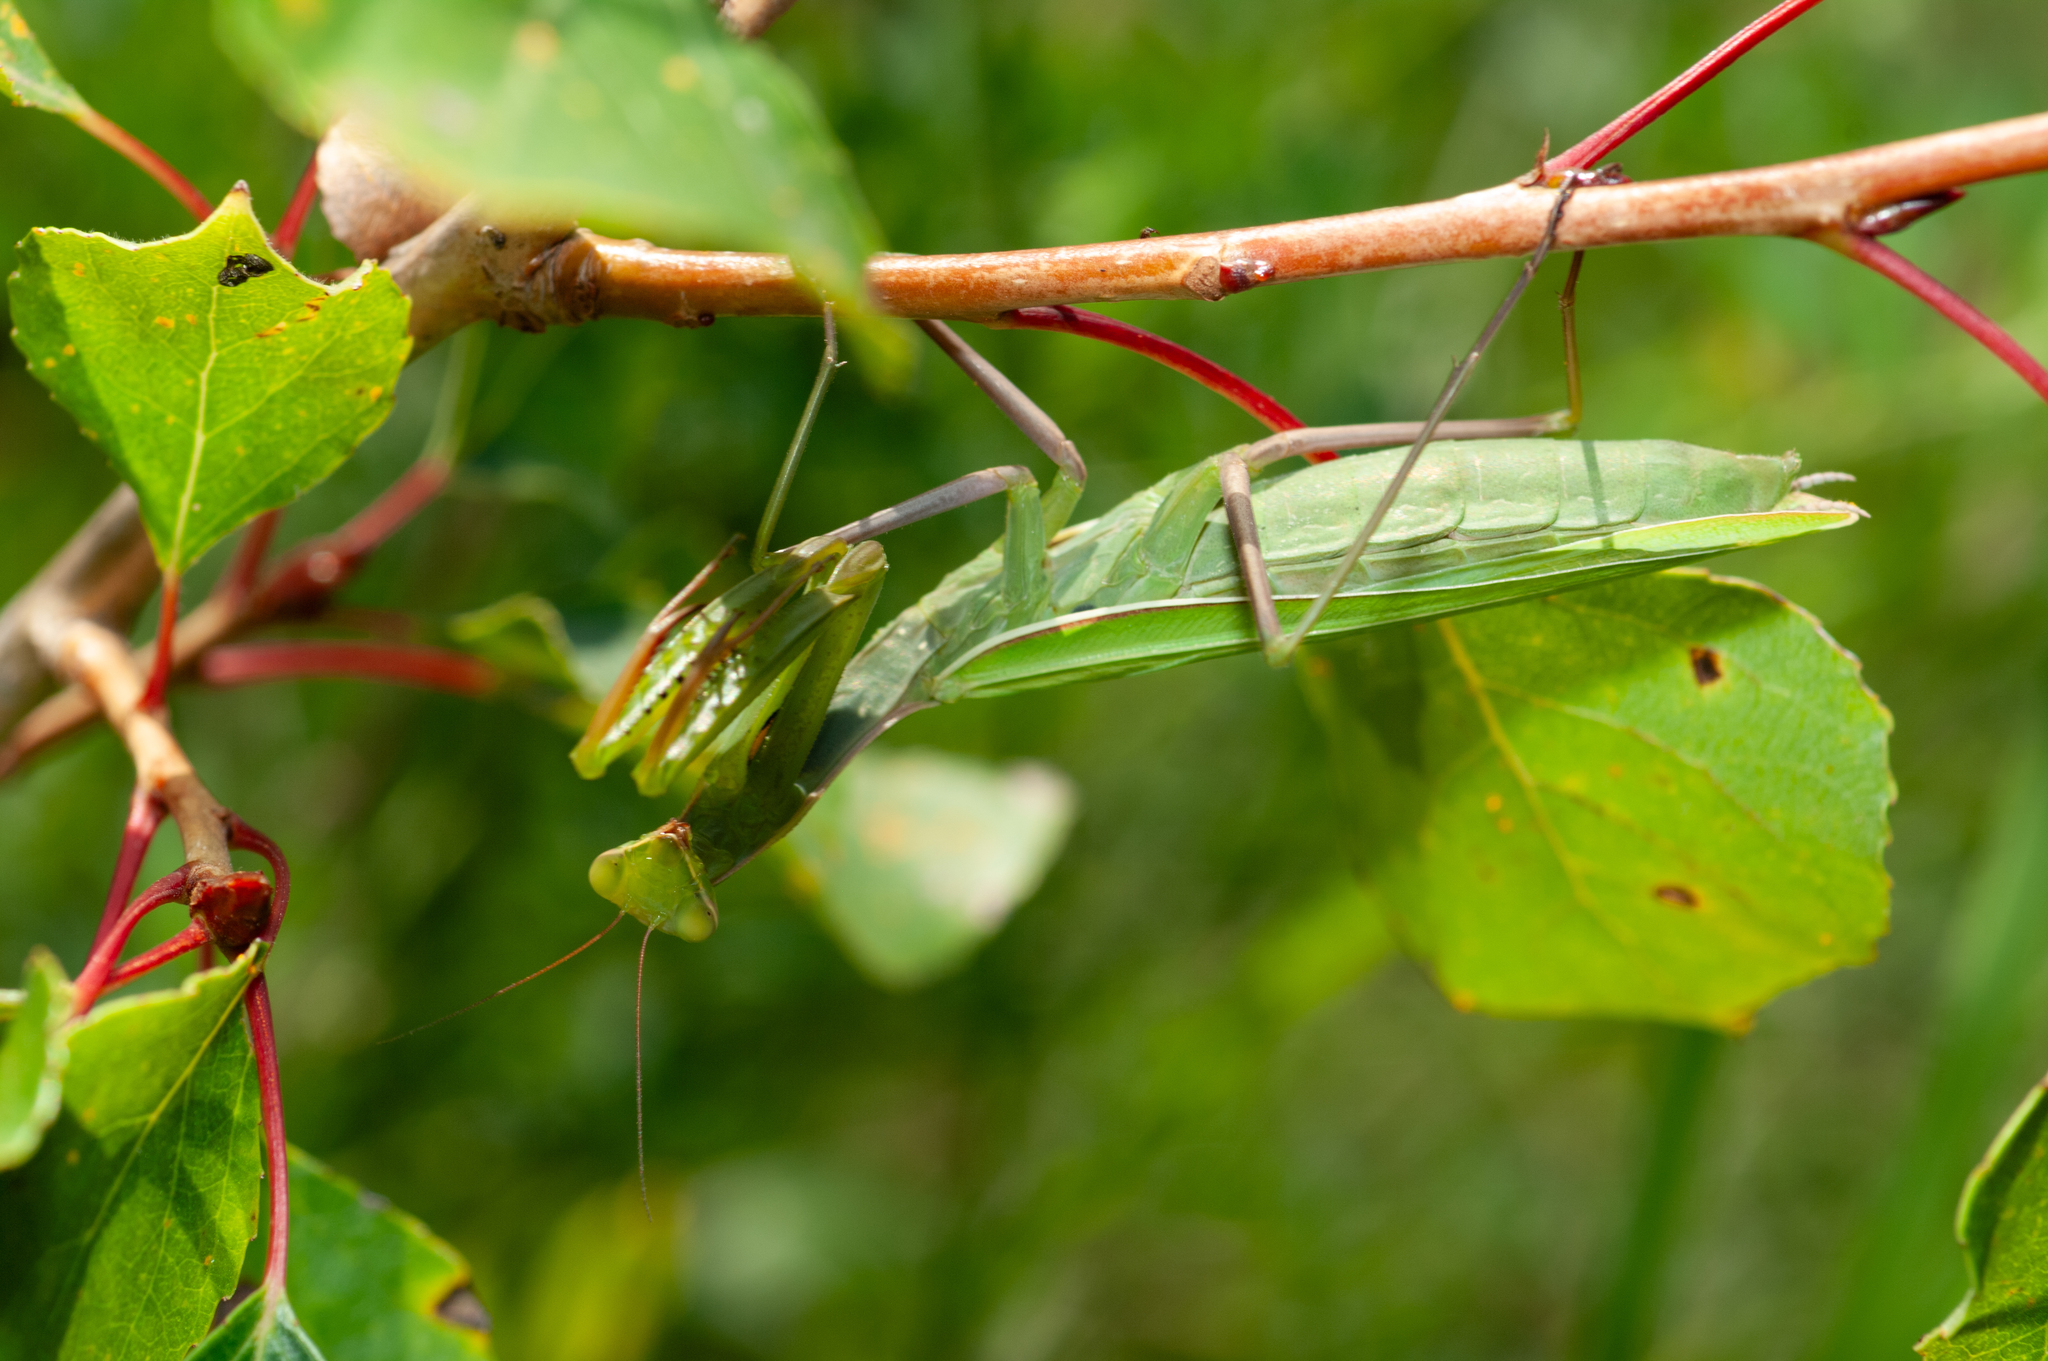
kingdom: Animalia
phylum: Arthropoda
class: Insecta
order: Mantodea
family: Mantidae
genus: Mantis
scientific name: Mantis religiosa
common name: Praying mantis
